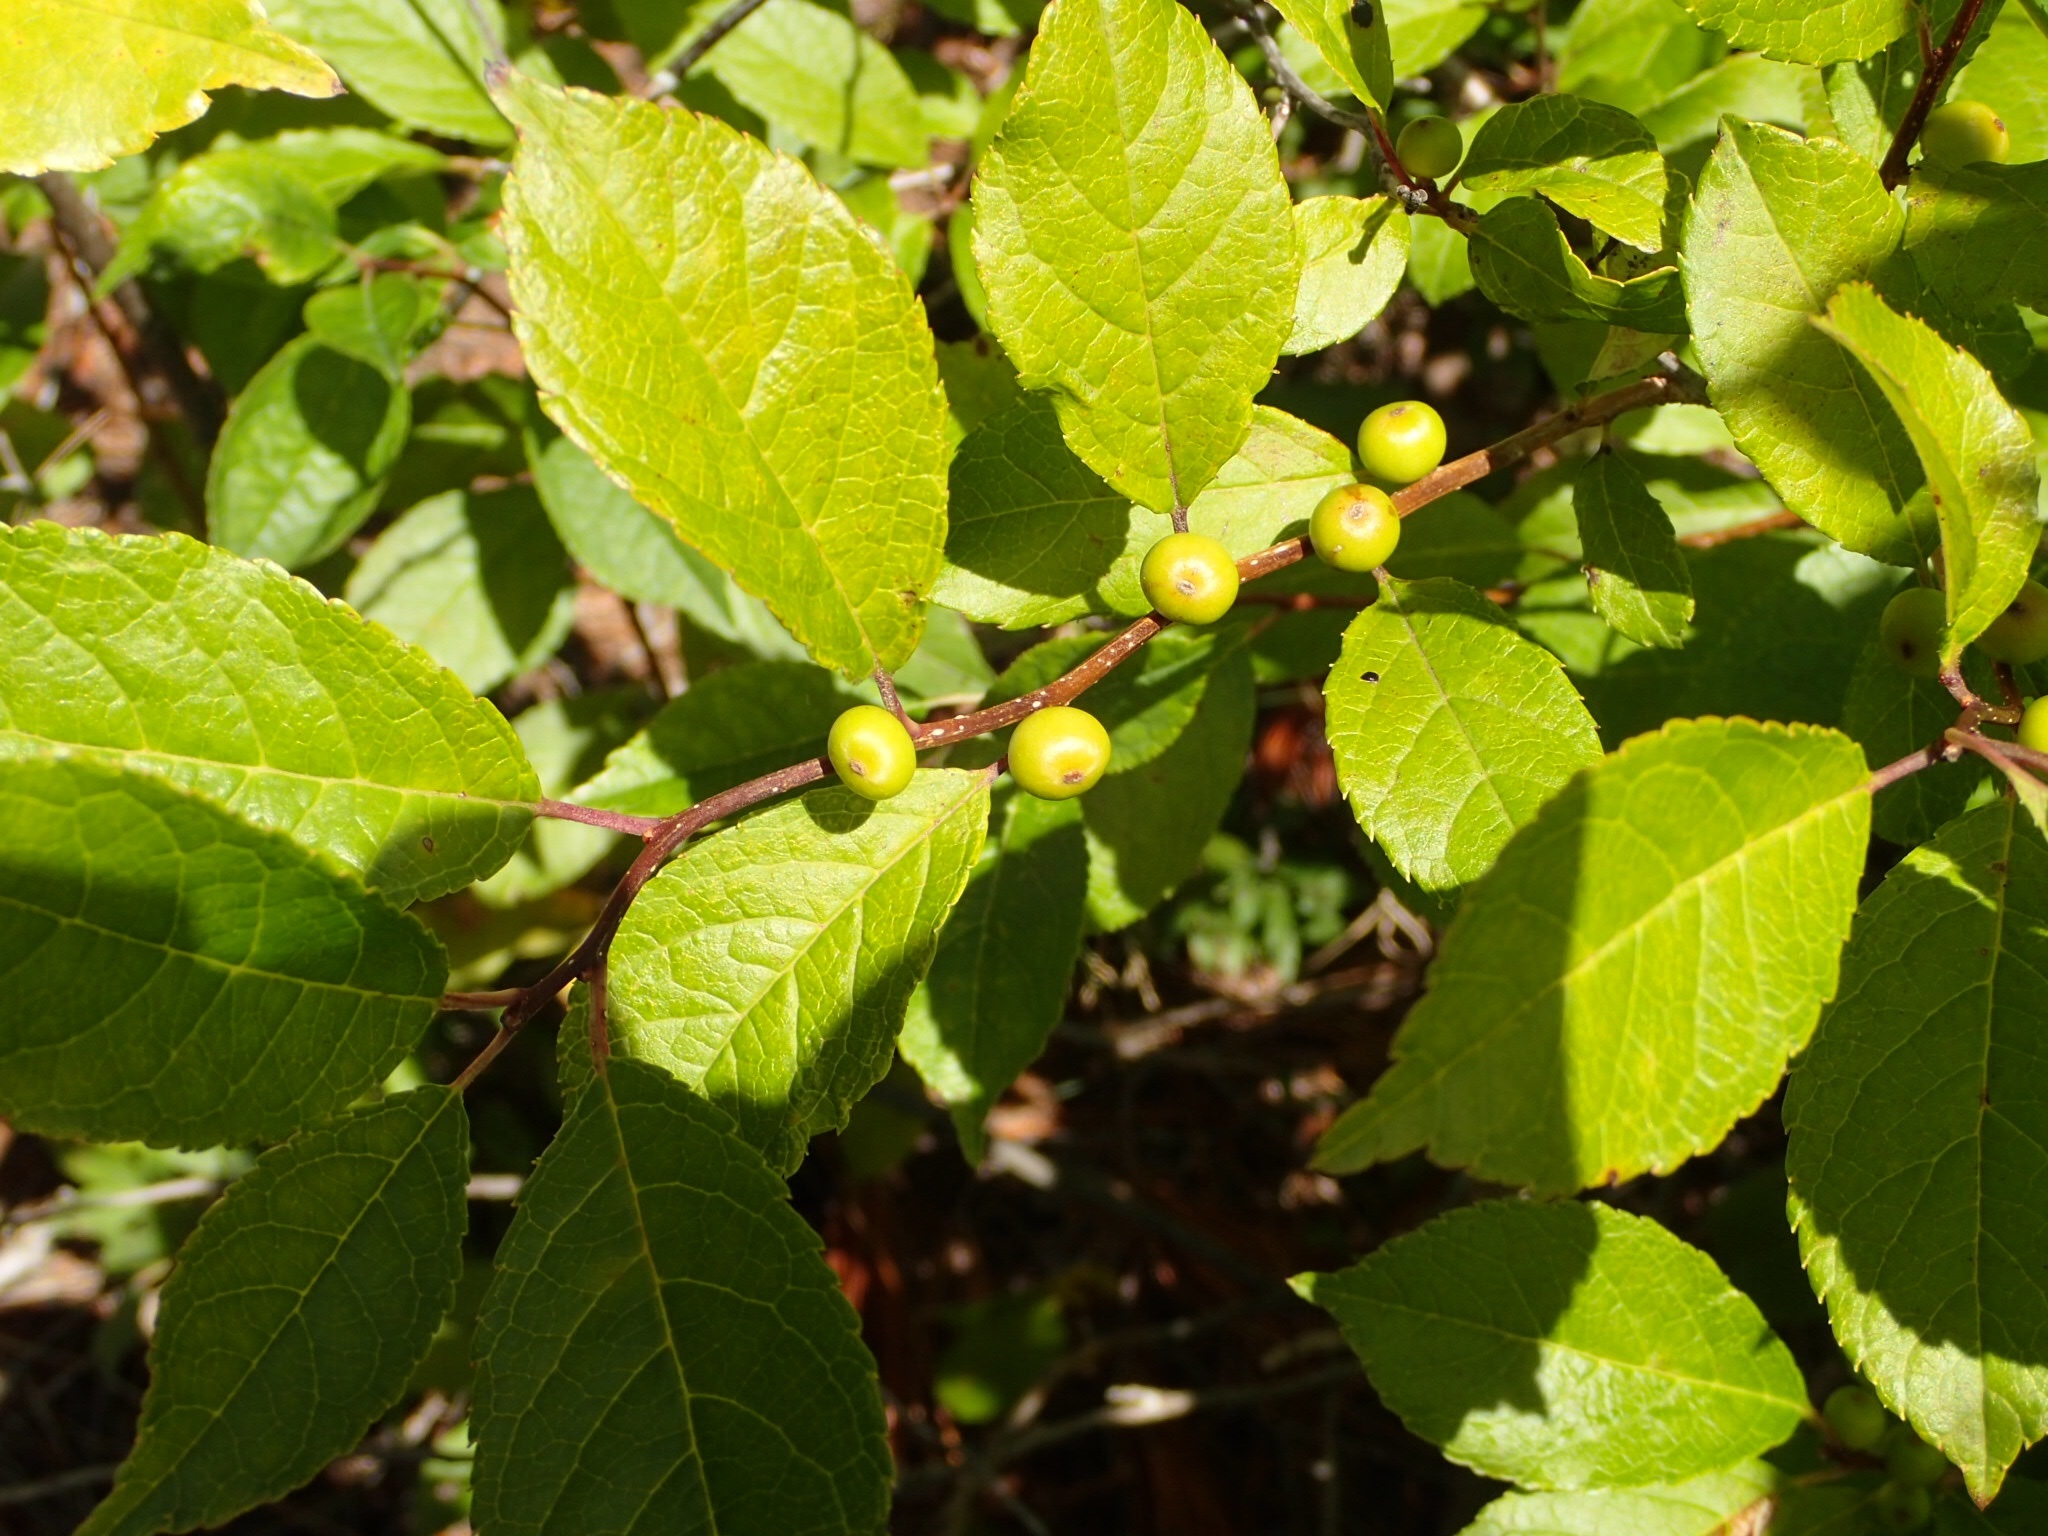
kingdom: Plantae
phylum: Tracheophyta
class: Magnoliopsida
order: Aquifoliales
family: Aquifoliaceae
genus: Ilex
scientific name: Ilex verticillata
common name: Virginia winterberry
